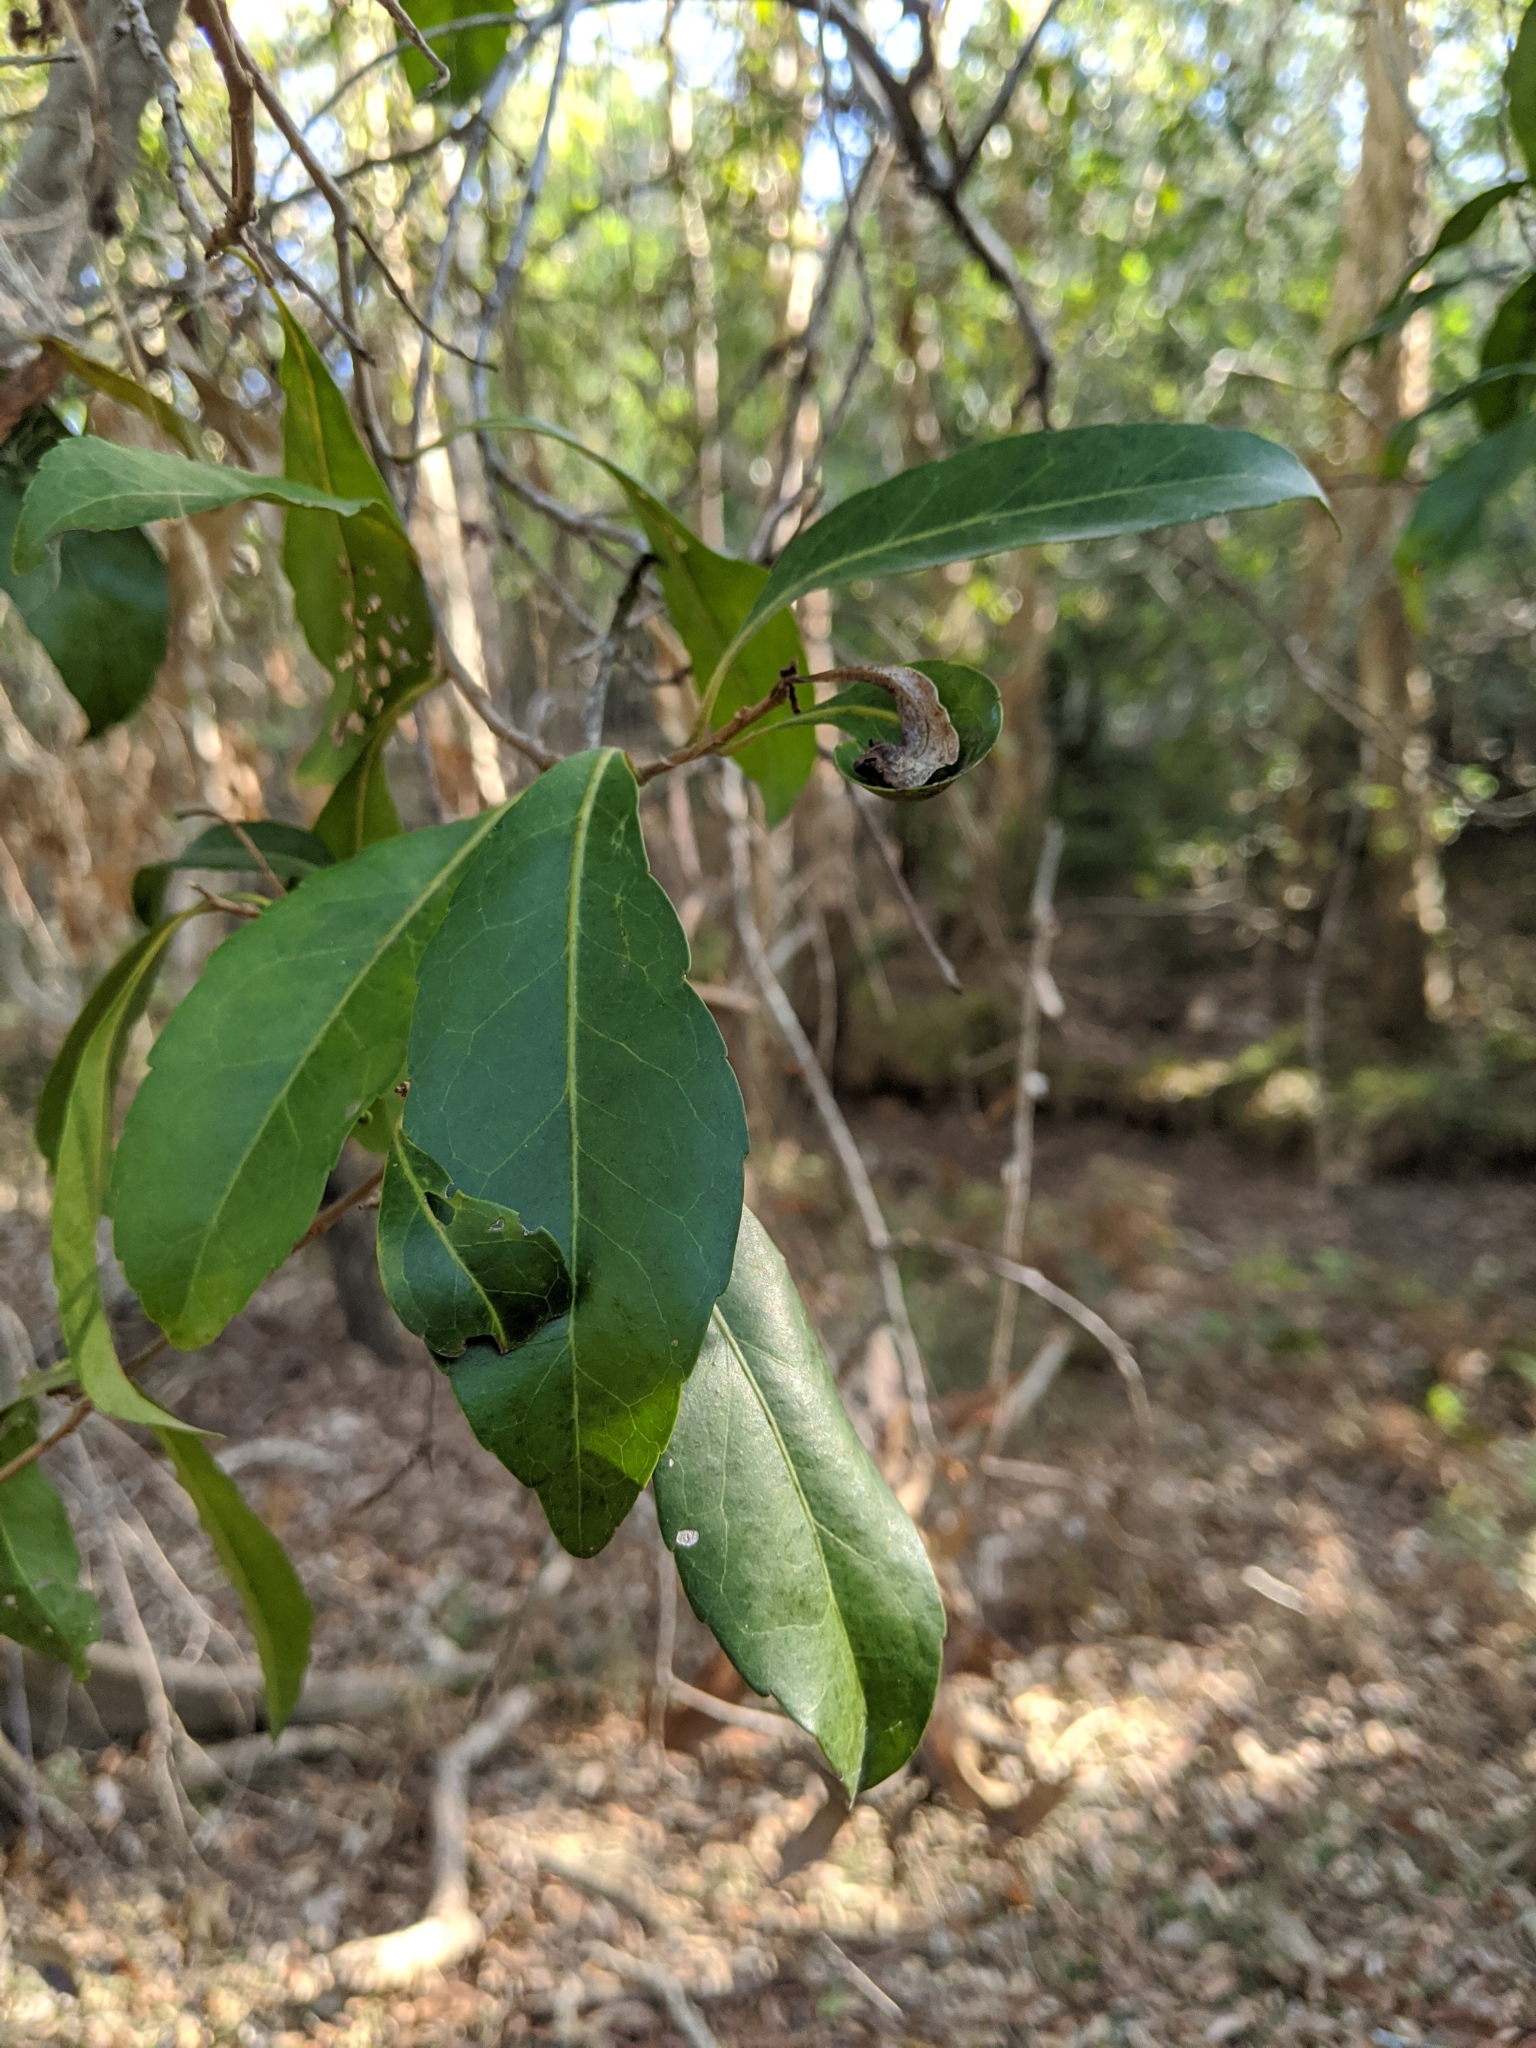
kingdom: Plantae
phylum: Tracheophyta
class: Magnoliopsida
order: Oxalidales
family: Elaeocarpaceae
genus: Elaeocarpus
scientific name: Elaeocarpus obovatus
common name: Freckled oliveberry
